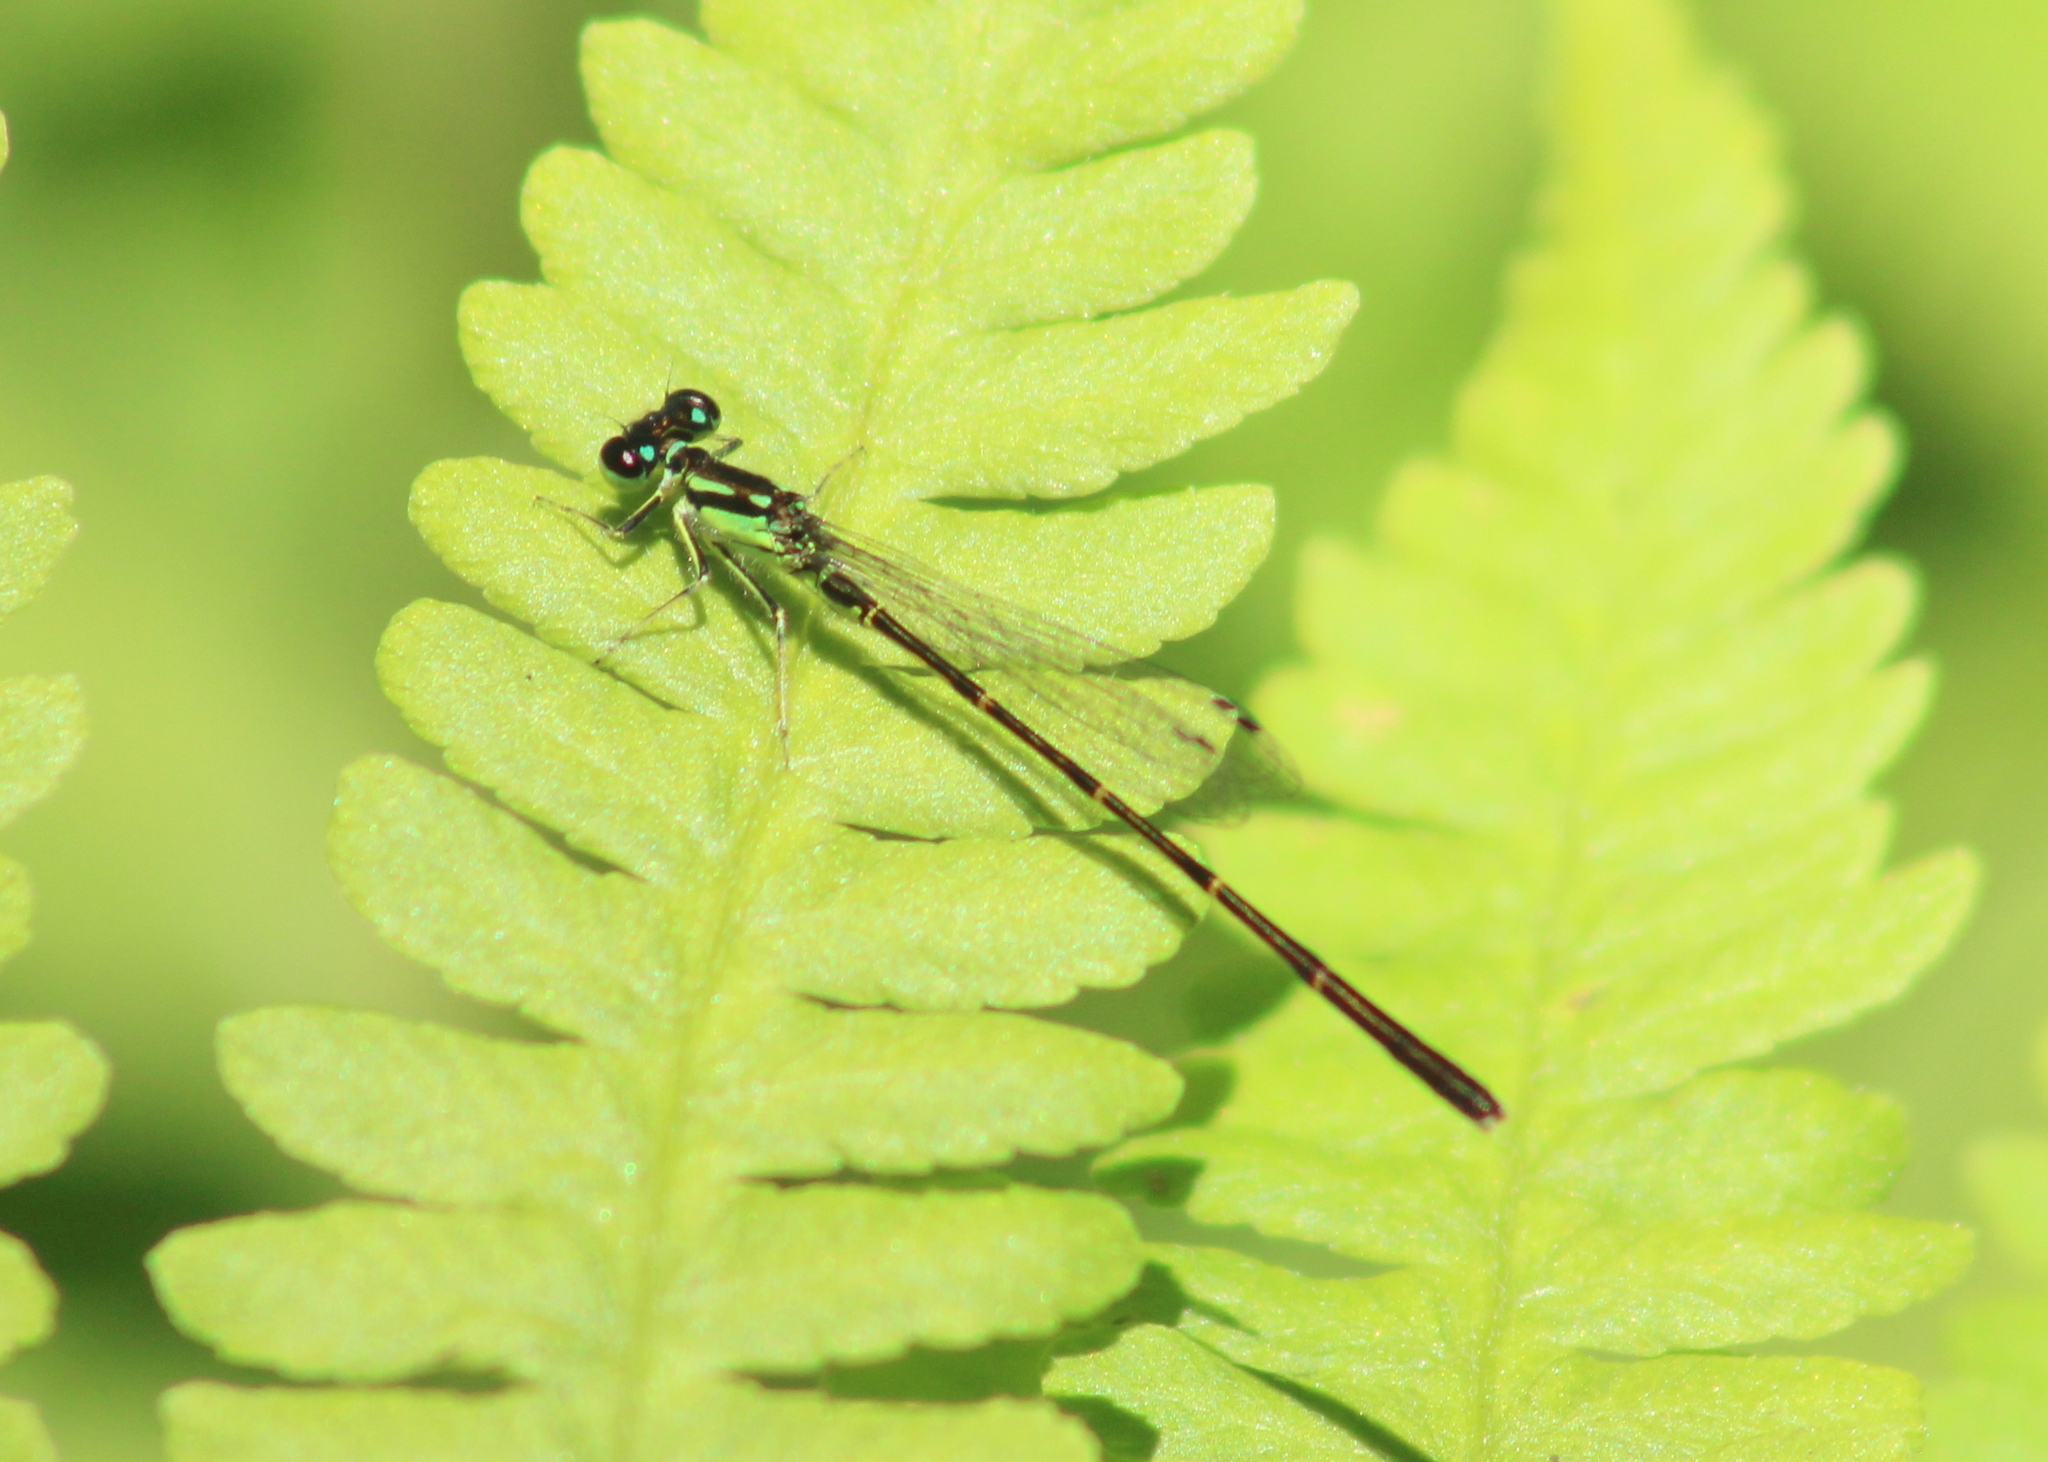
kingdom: Animalia
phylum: Arthropoda
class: Insecta
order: Odonata
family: Coenagrionidae
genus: Ischnura
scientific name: Ischnura posita
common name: Fragile forktail
